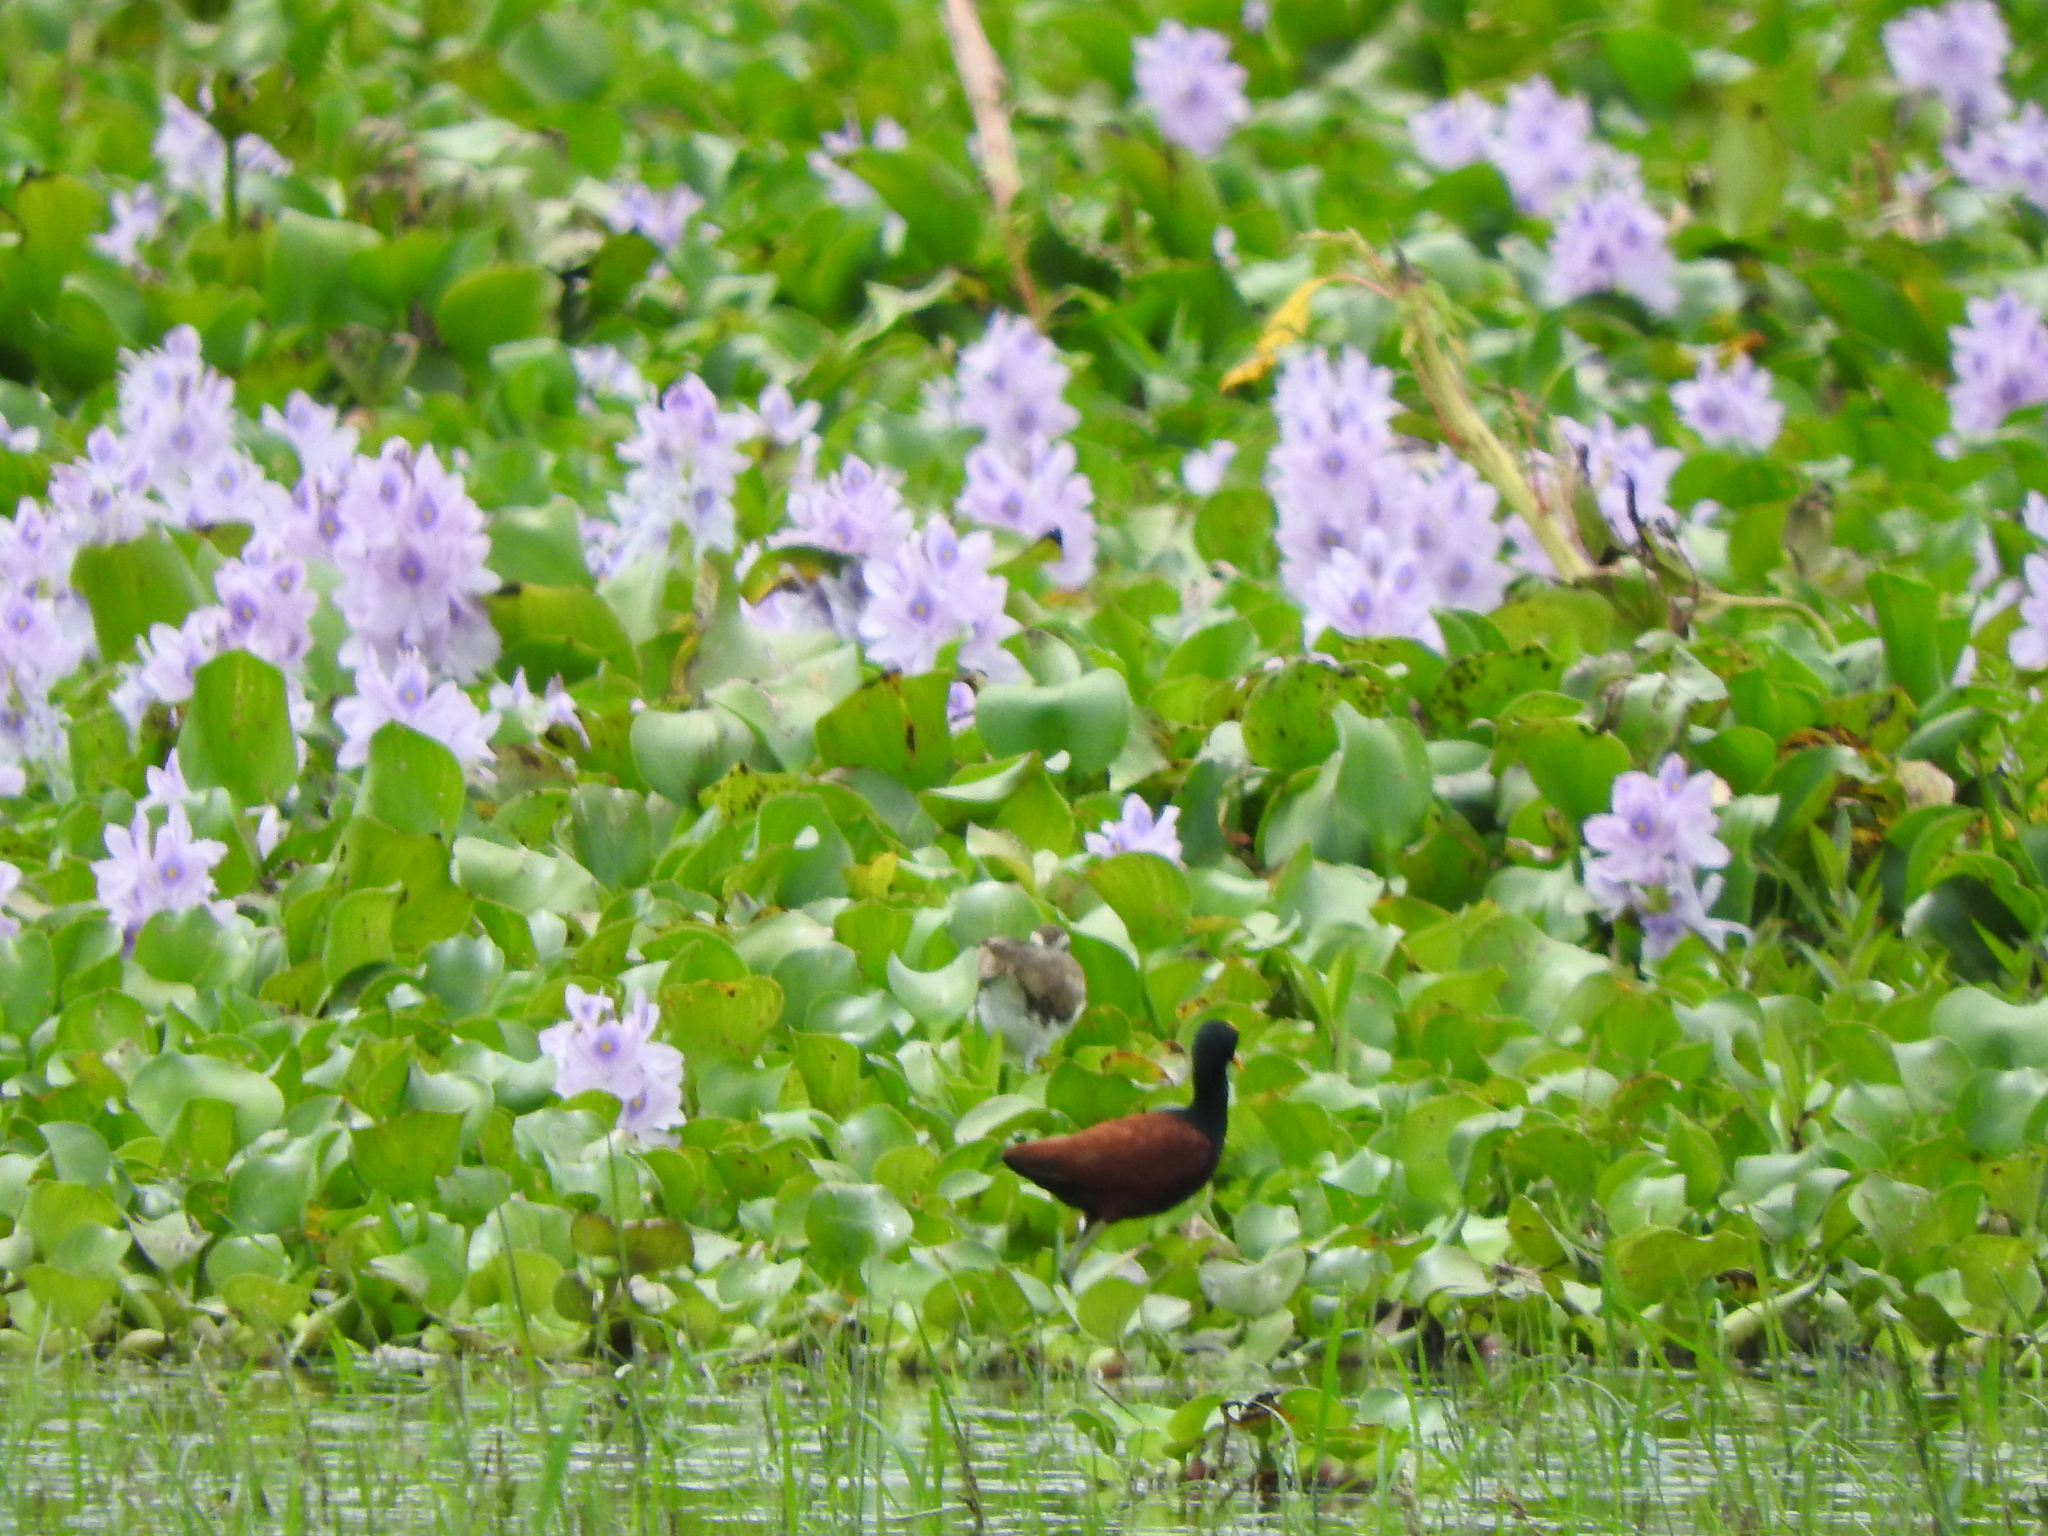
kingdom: Animalia
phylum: Chordata
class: Aves
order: Charadriiformes
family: Jacanidae
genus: Jacana
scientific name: Jacana spinosa
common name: Northern jacana
